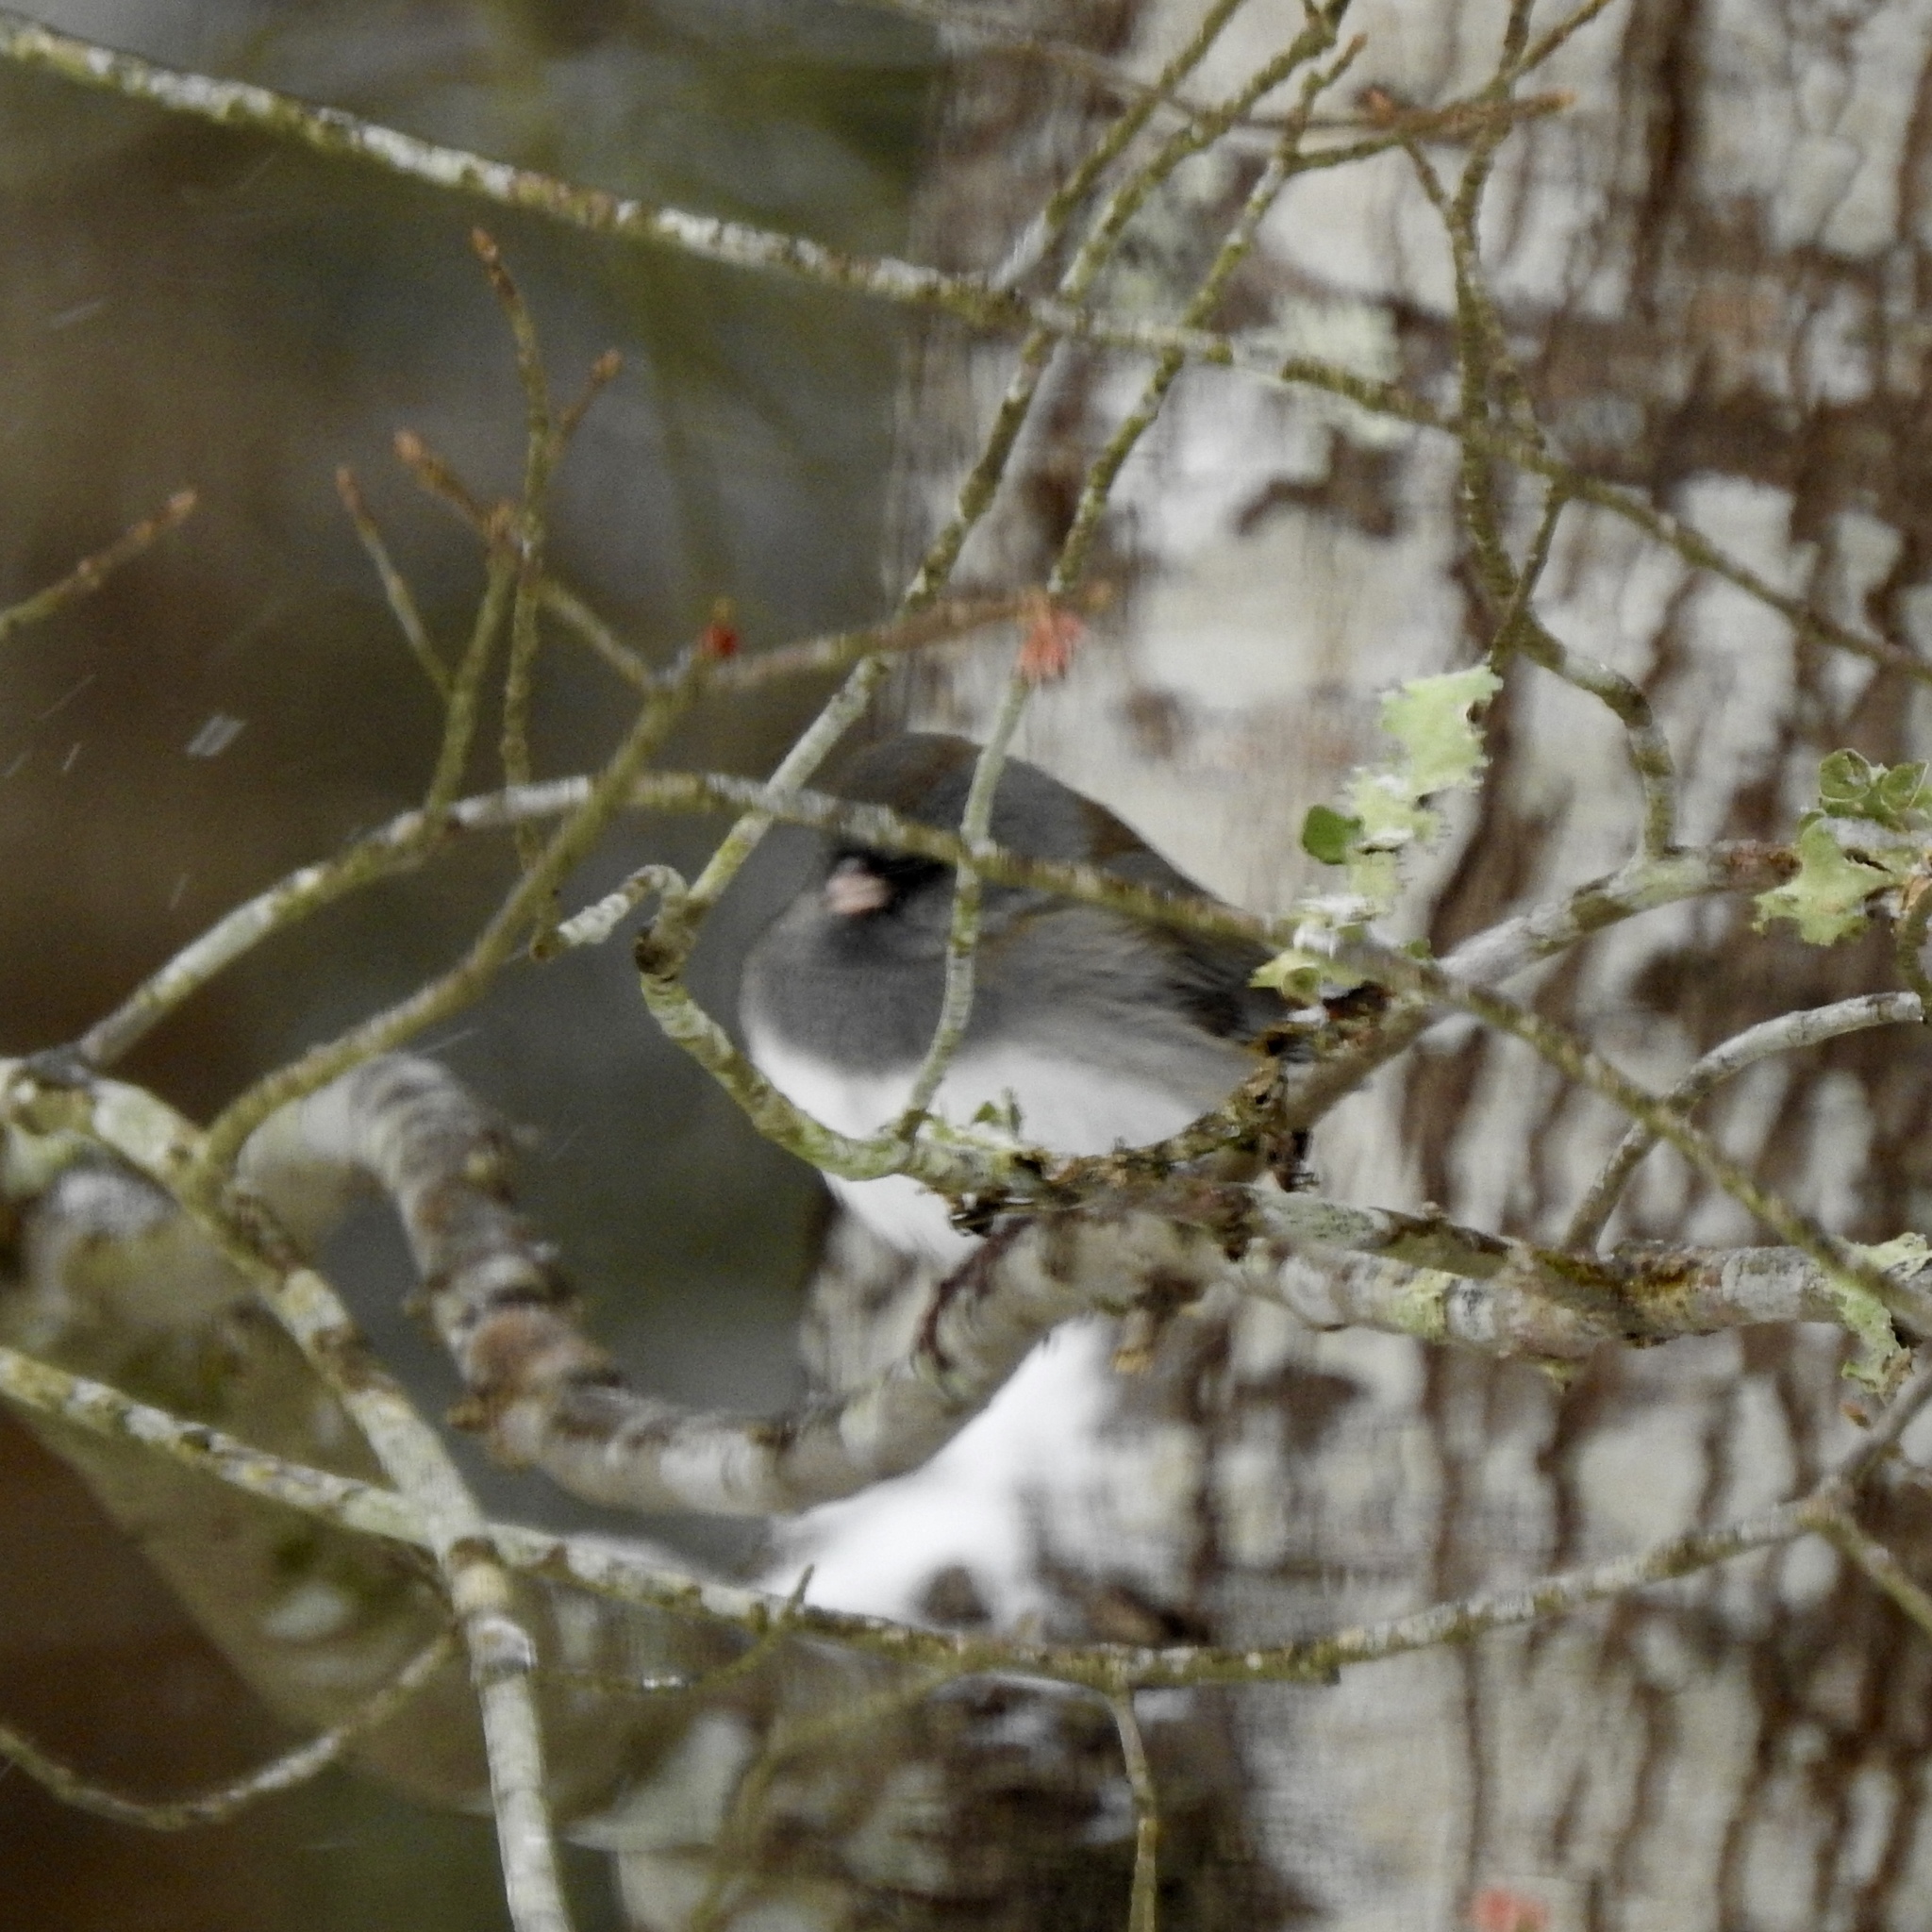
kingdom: Animalia
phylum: Chordata
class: Aves
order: Passeriformes
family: Passerellidae
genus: Junco
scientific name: Junco hyemalis
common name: Dark-eyed junco
